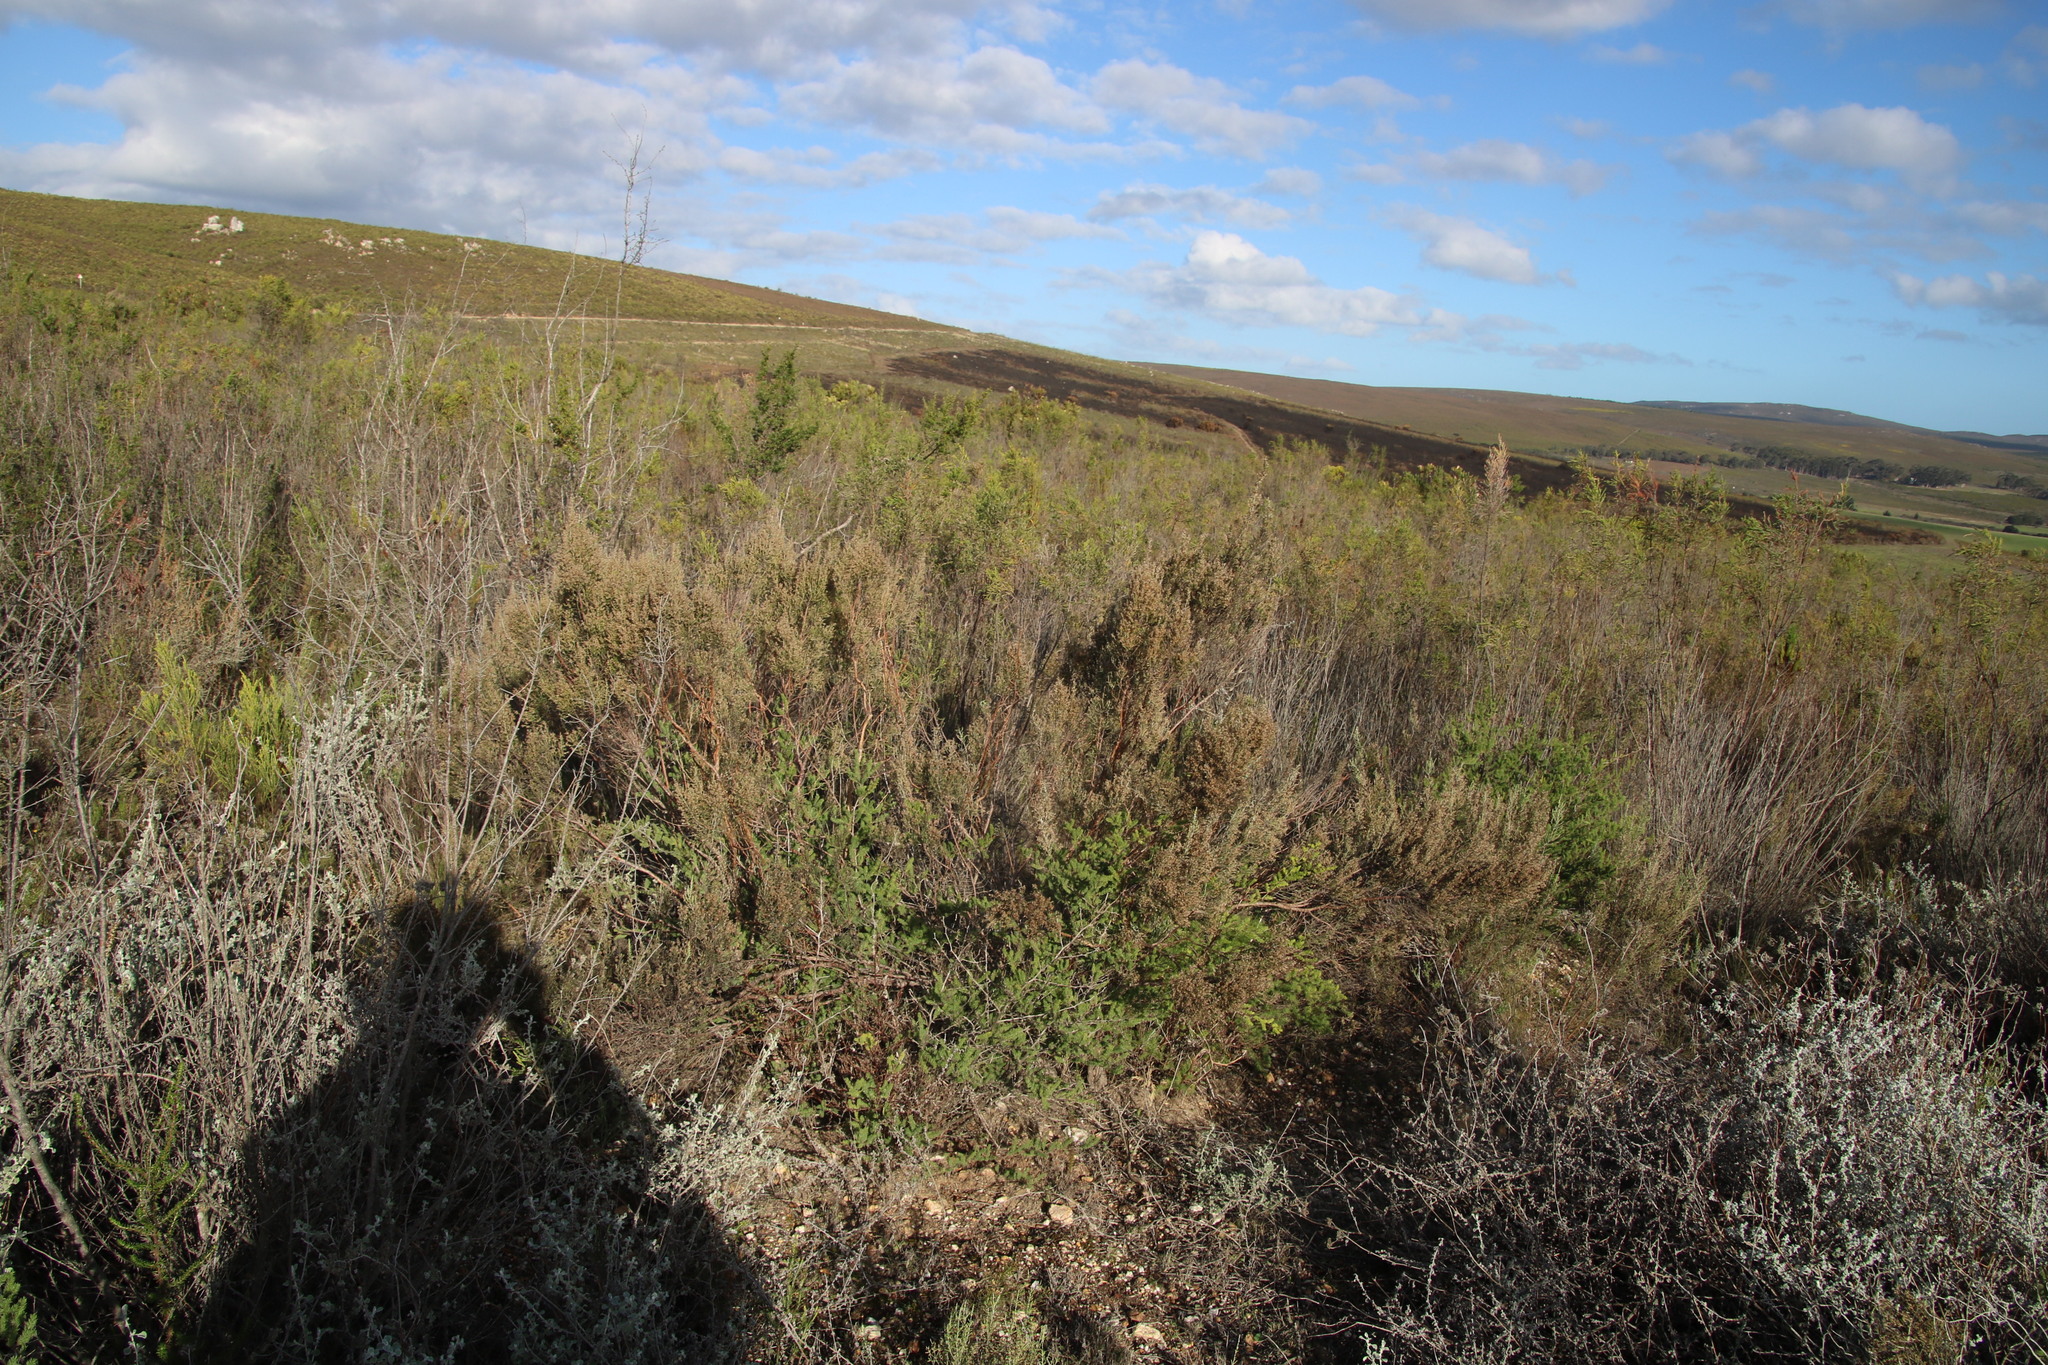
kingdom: Plantae
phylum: Tracheophyta
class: Magnoliopsida
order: Asterales
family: Asteraceae
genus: Dicerothamnus
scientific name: Dicerothamnus rhinocerotis
